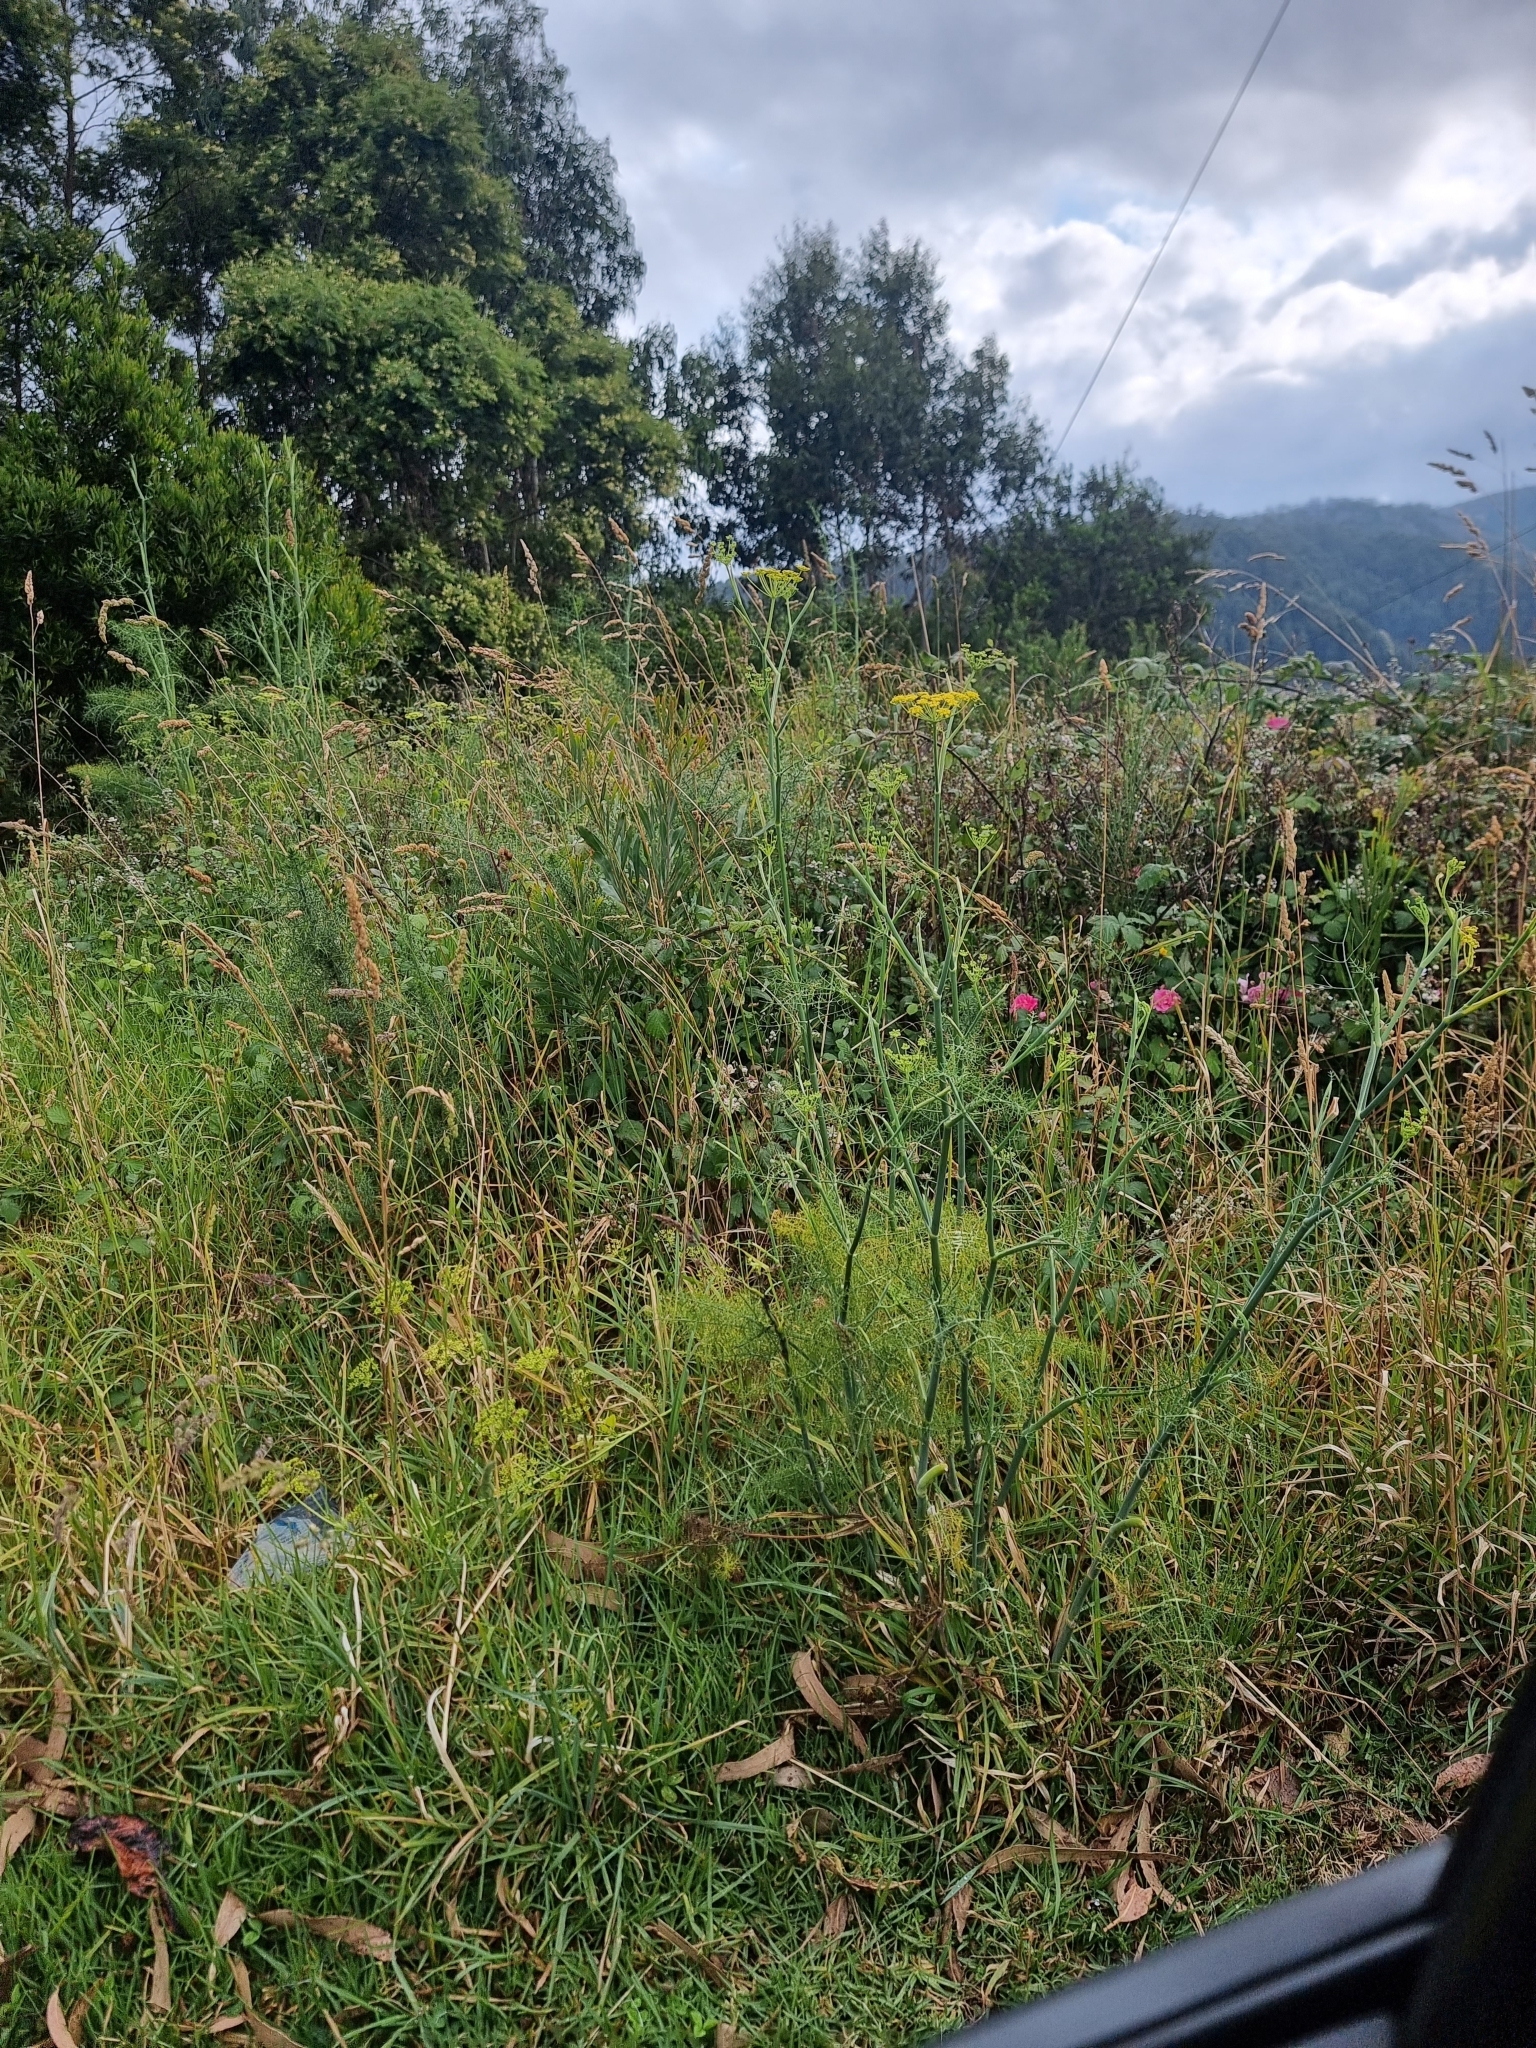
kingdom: Plantae
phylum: Tracheophyta
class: Magnoliopsida
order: Apiales
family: Apiaceae
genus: Foeniculum
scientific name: Foeniculum vulgare
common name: Fennel
